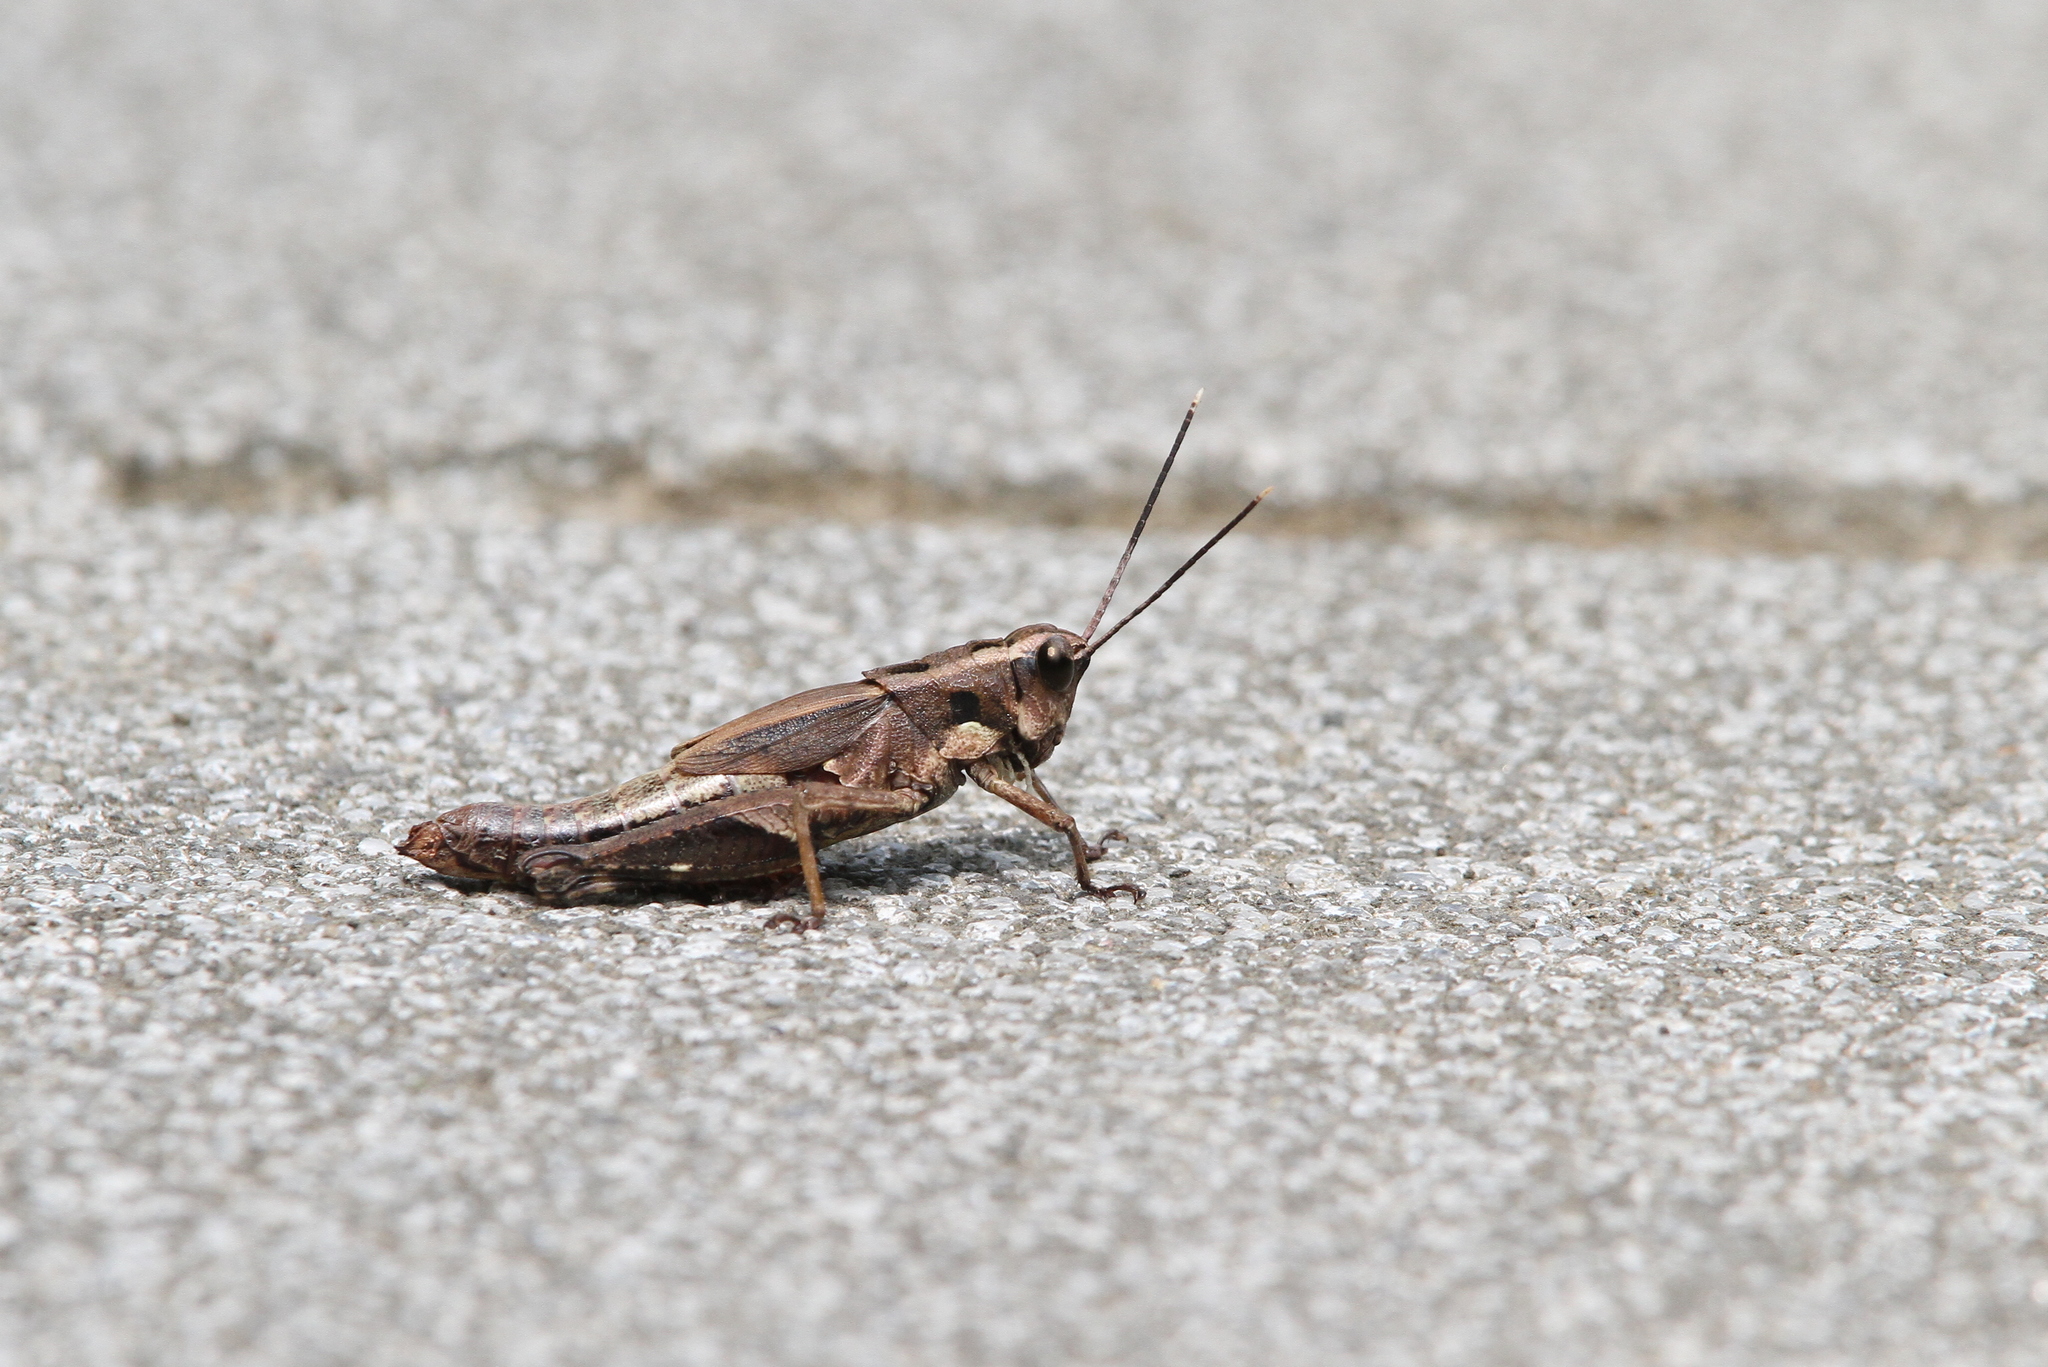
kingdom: Animalia
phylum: Arthropoda
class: Insecta
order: Orthoptera
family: Acrididae
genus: Traulia
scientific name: Traulia ornata
